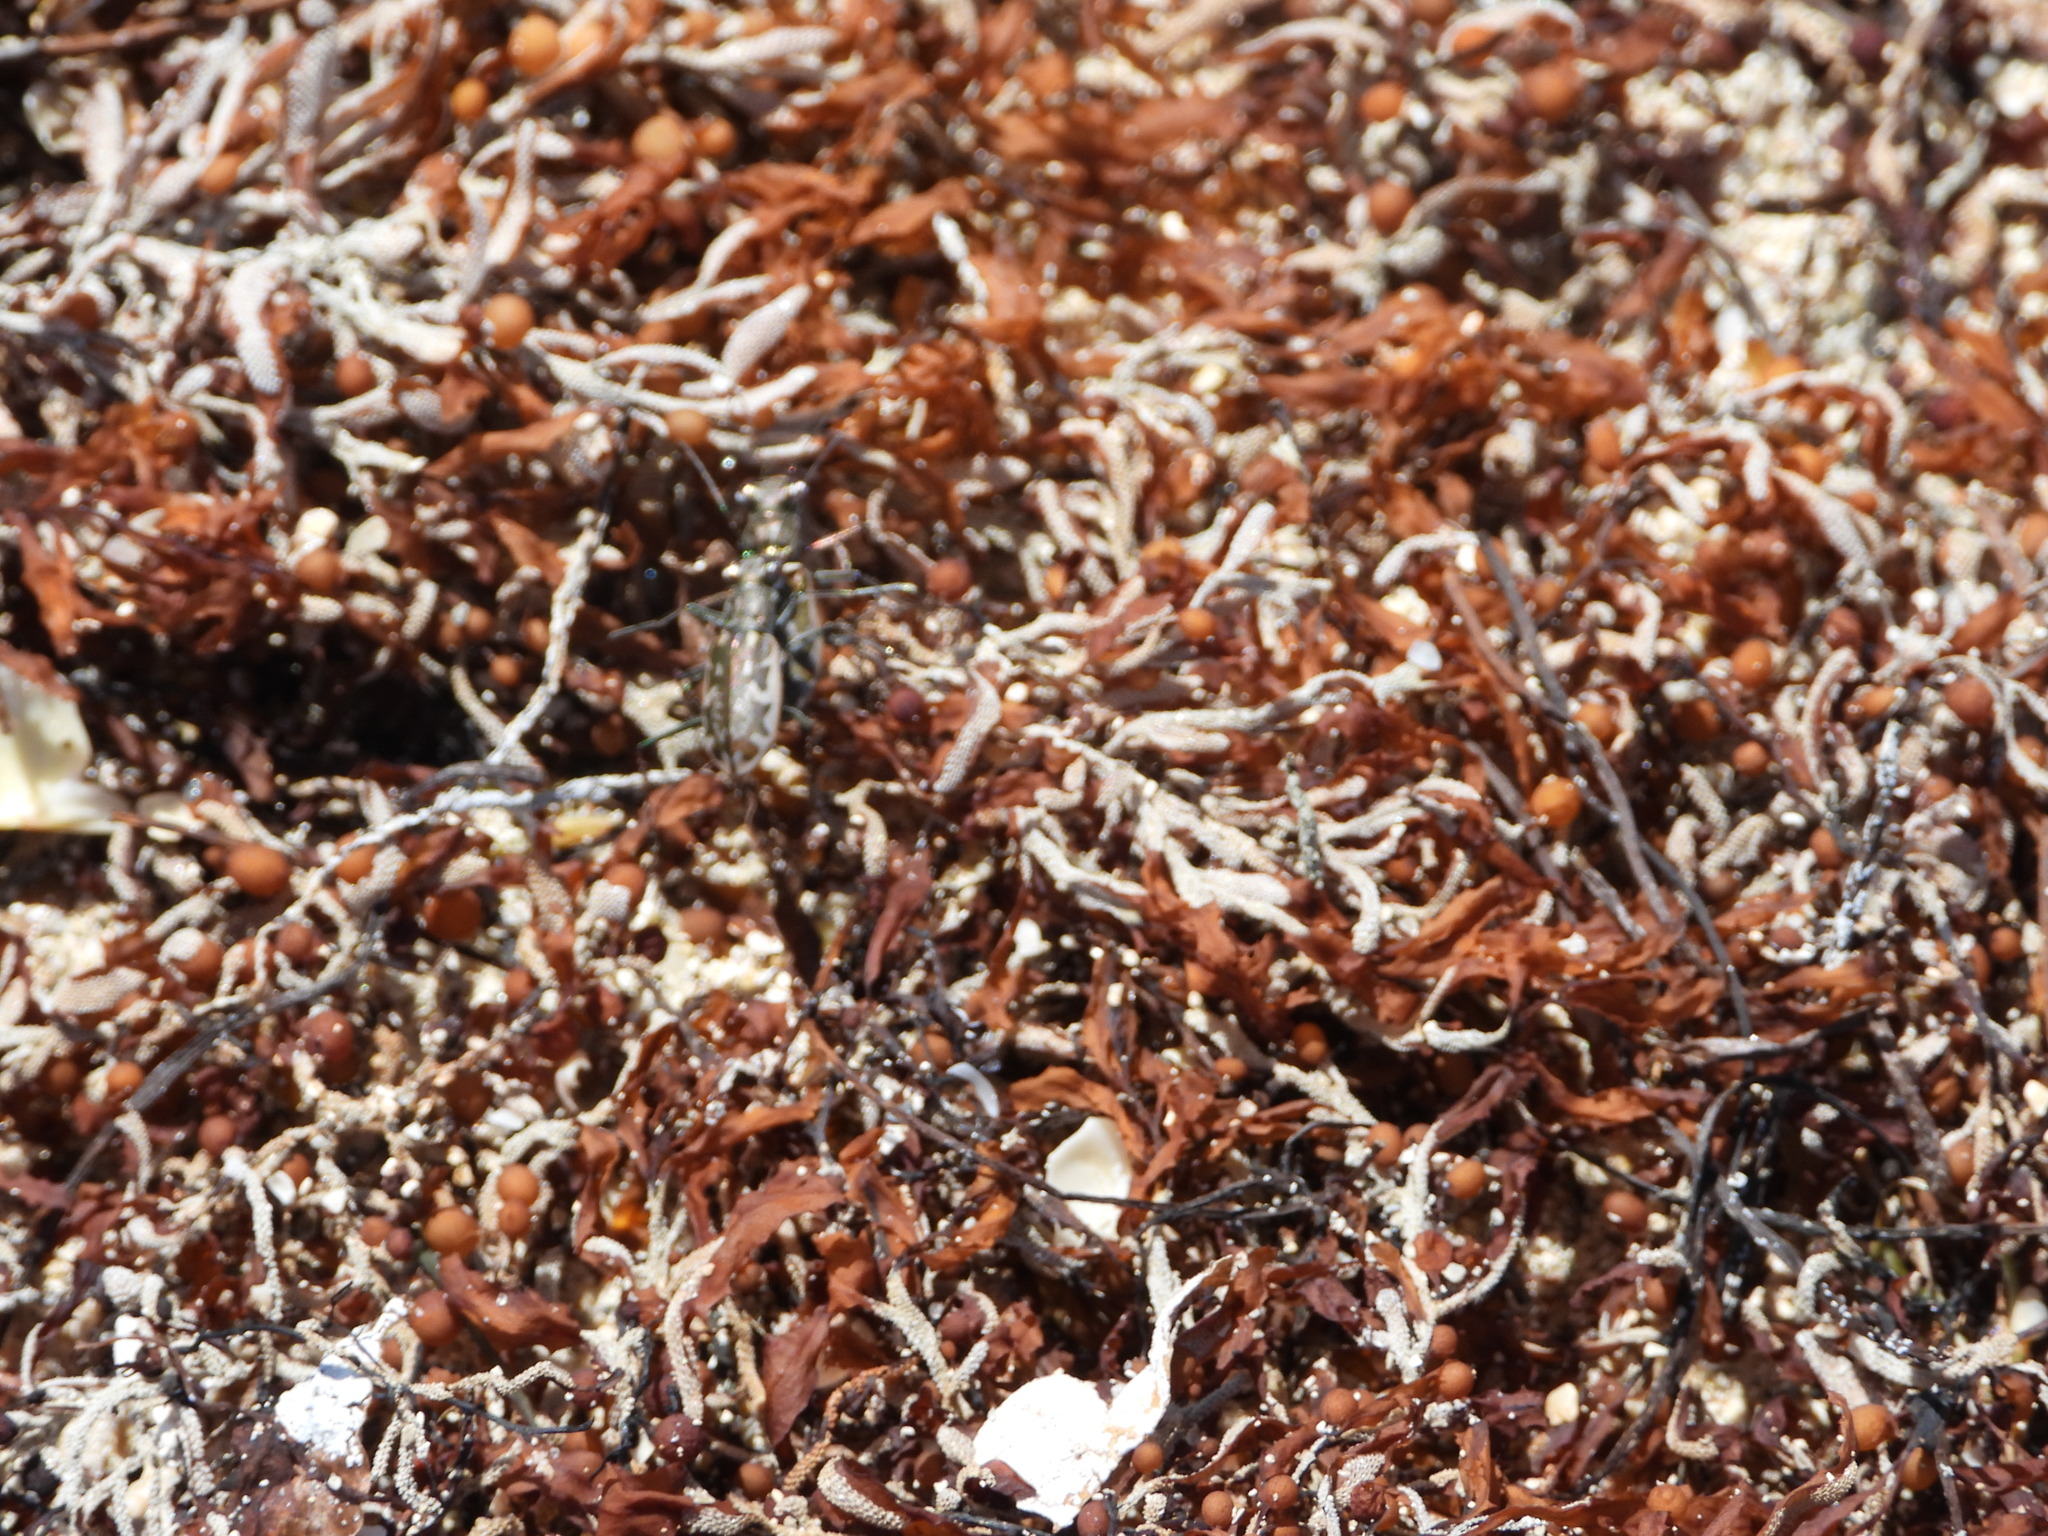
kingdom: Animalia
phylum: Arthropoda
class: Insecta
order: Coleoptera
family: Carabidae
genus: Ellipsoptera
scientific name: Ellipsoptera marginata
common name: Margined tiger beetle
